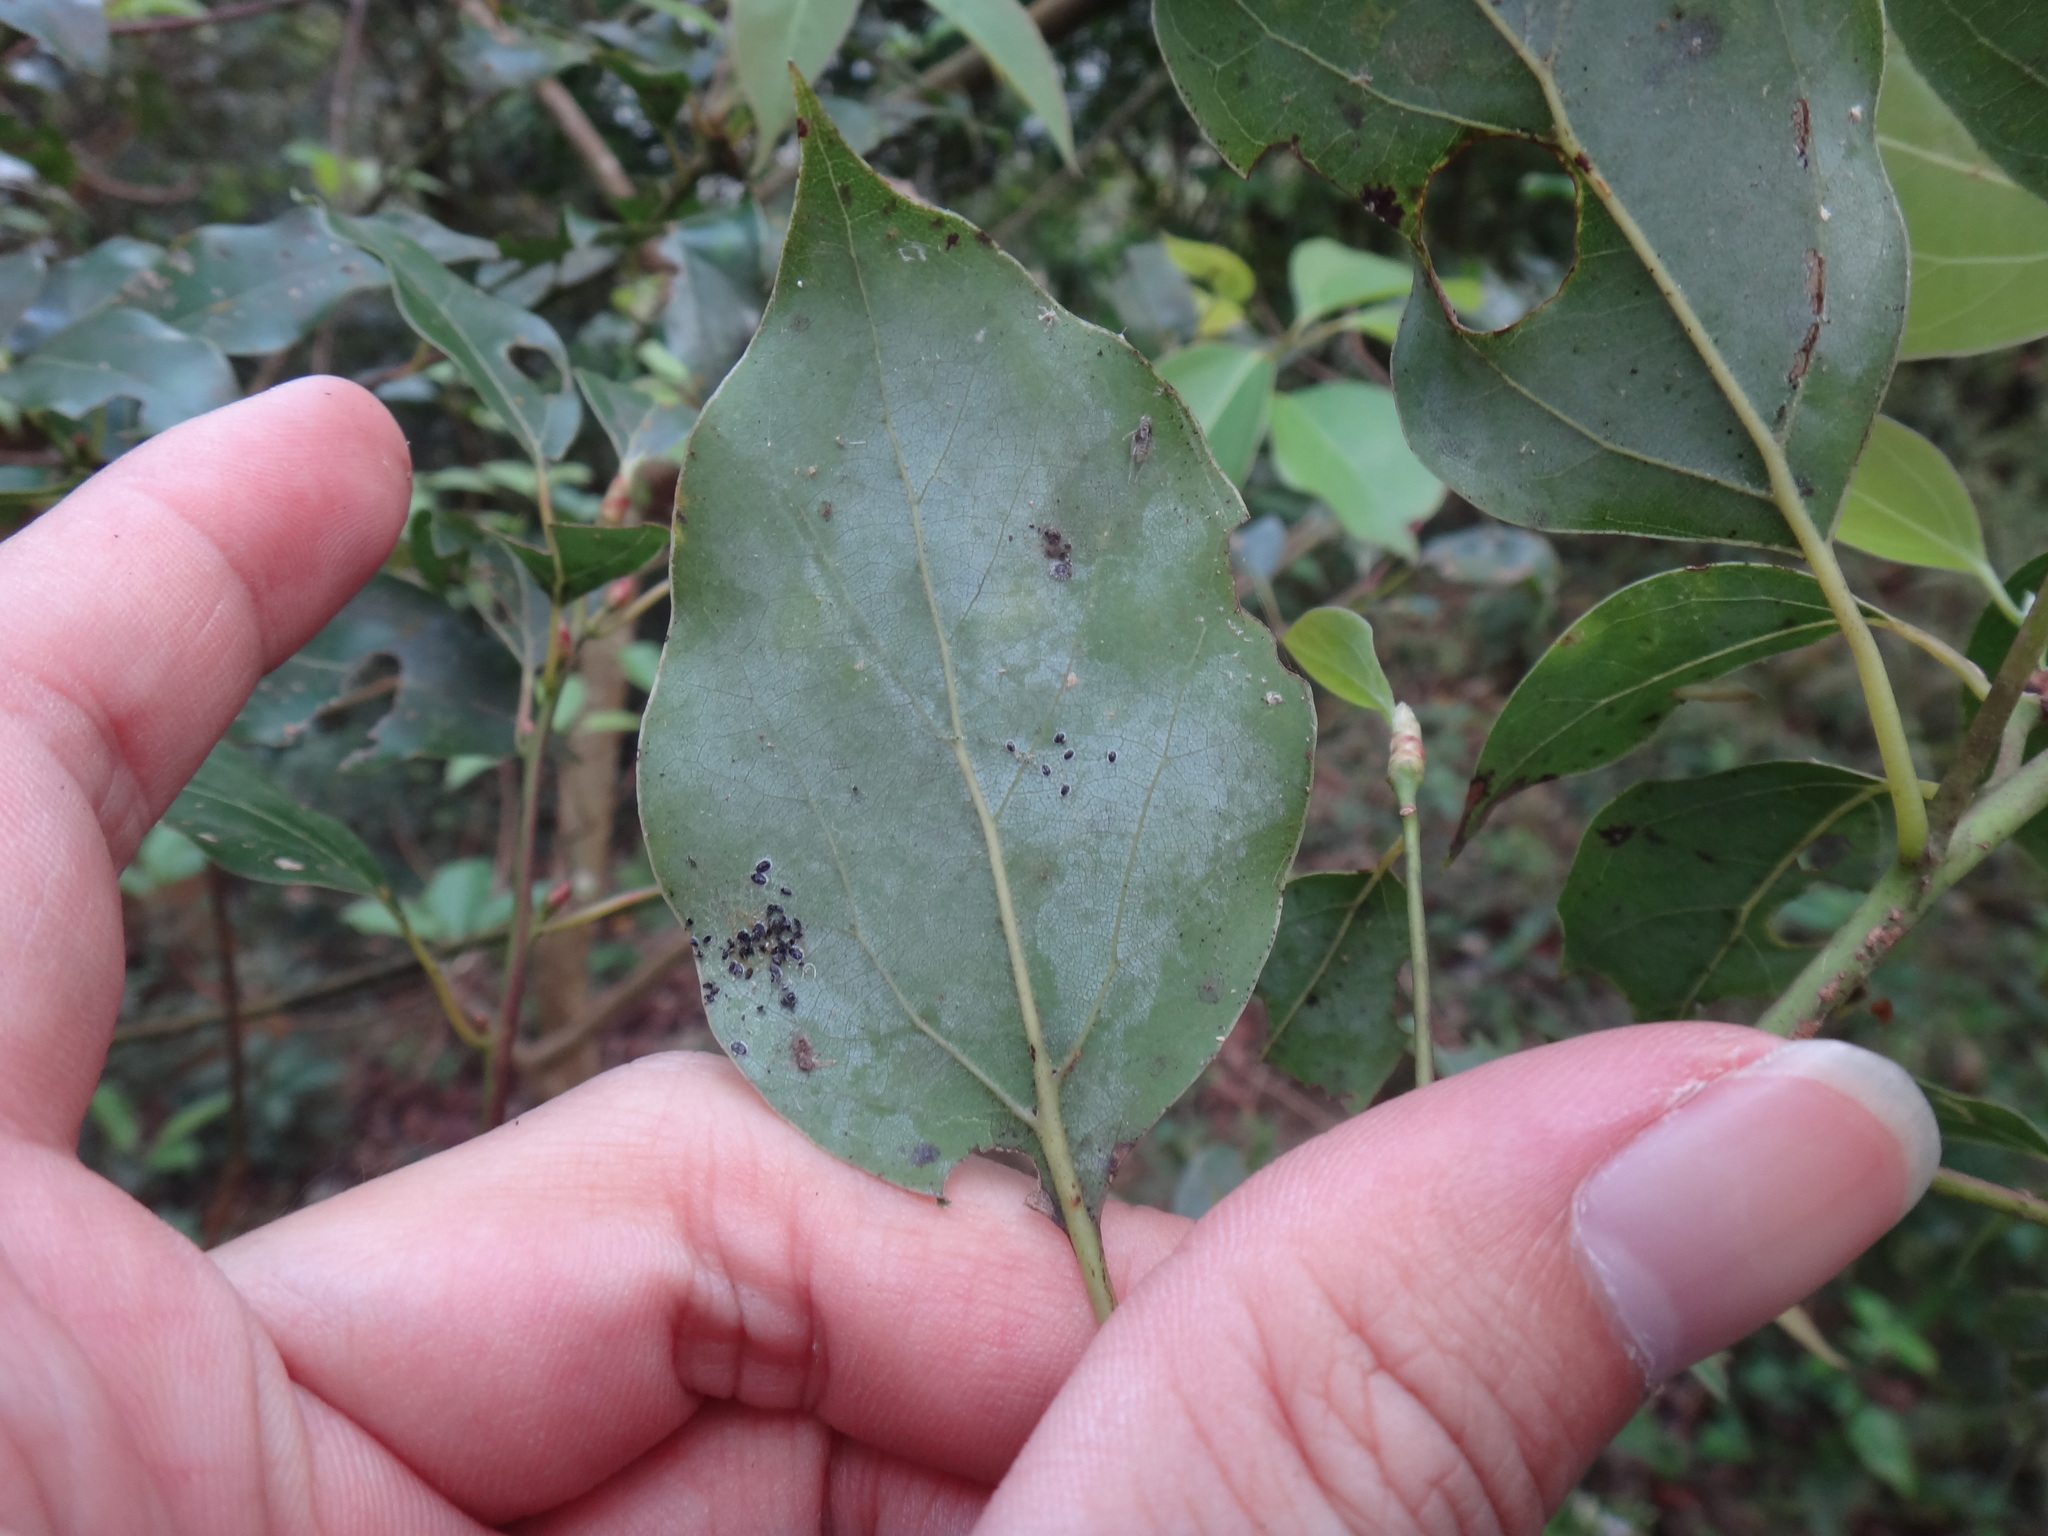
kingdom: Plantae
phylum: Tracheophyta
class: Magnoliopsida
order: Laurales
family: Lauraceae
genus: Cinnamomum
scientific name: Cinnamomum camphora
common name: Camphortree
